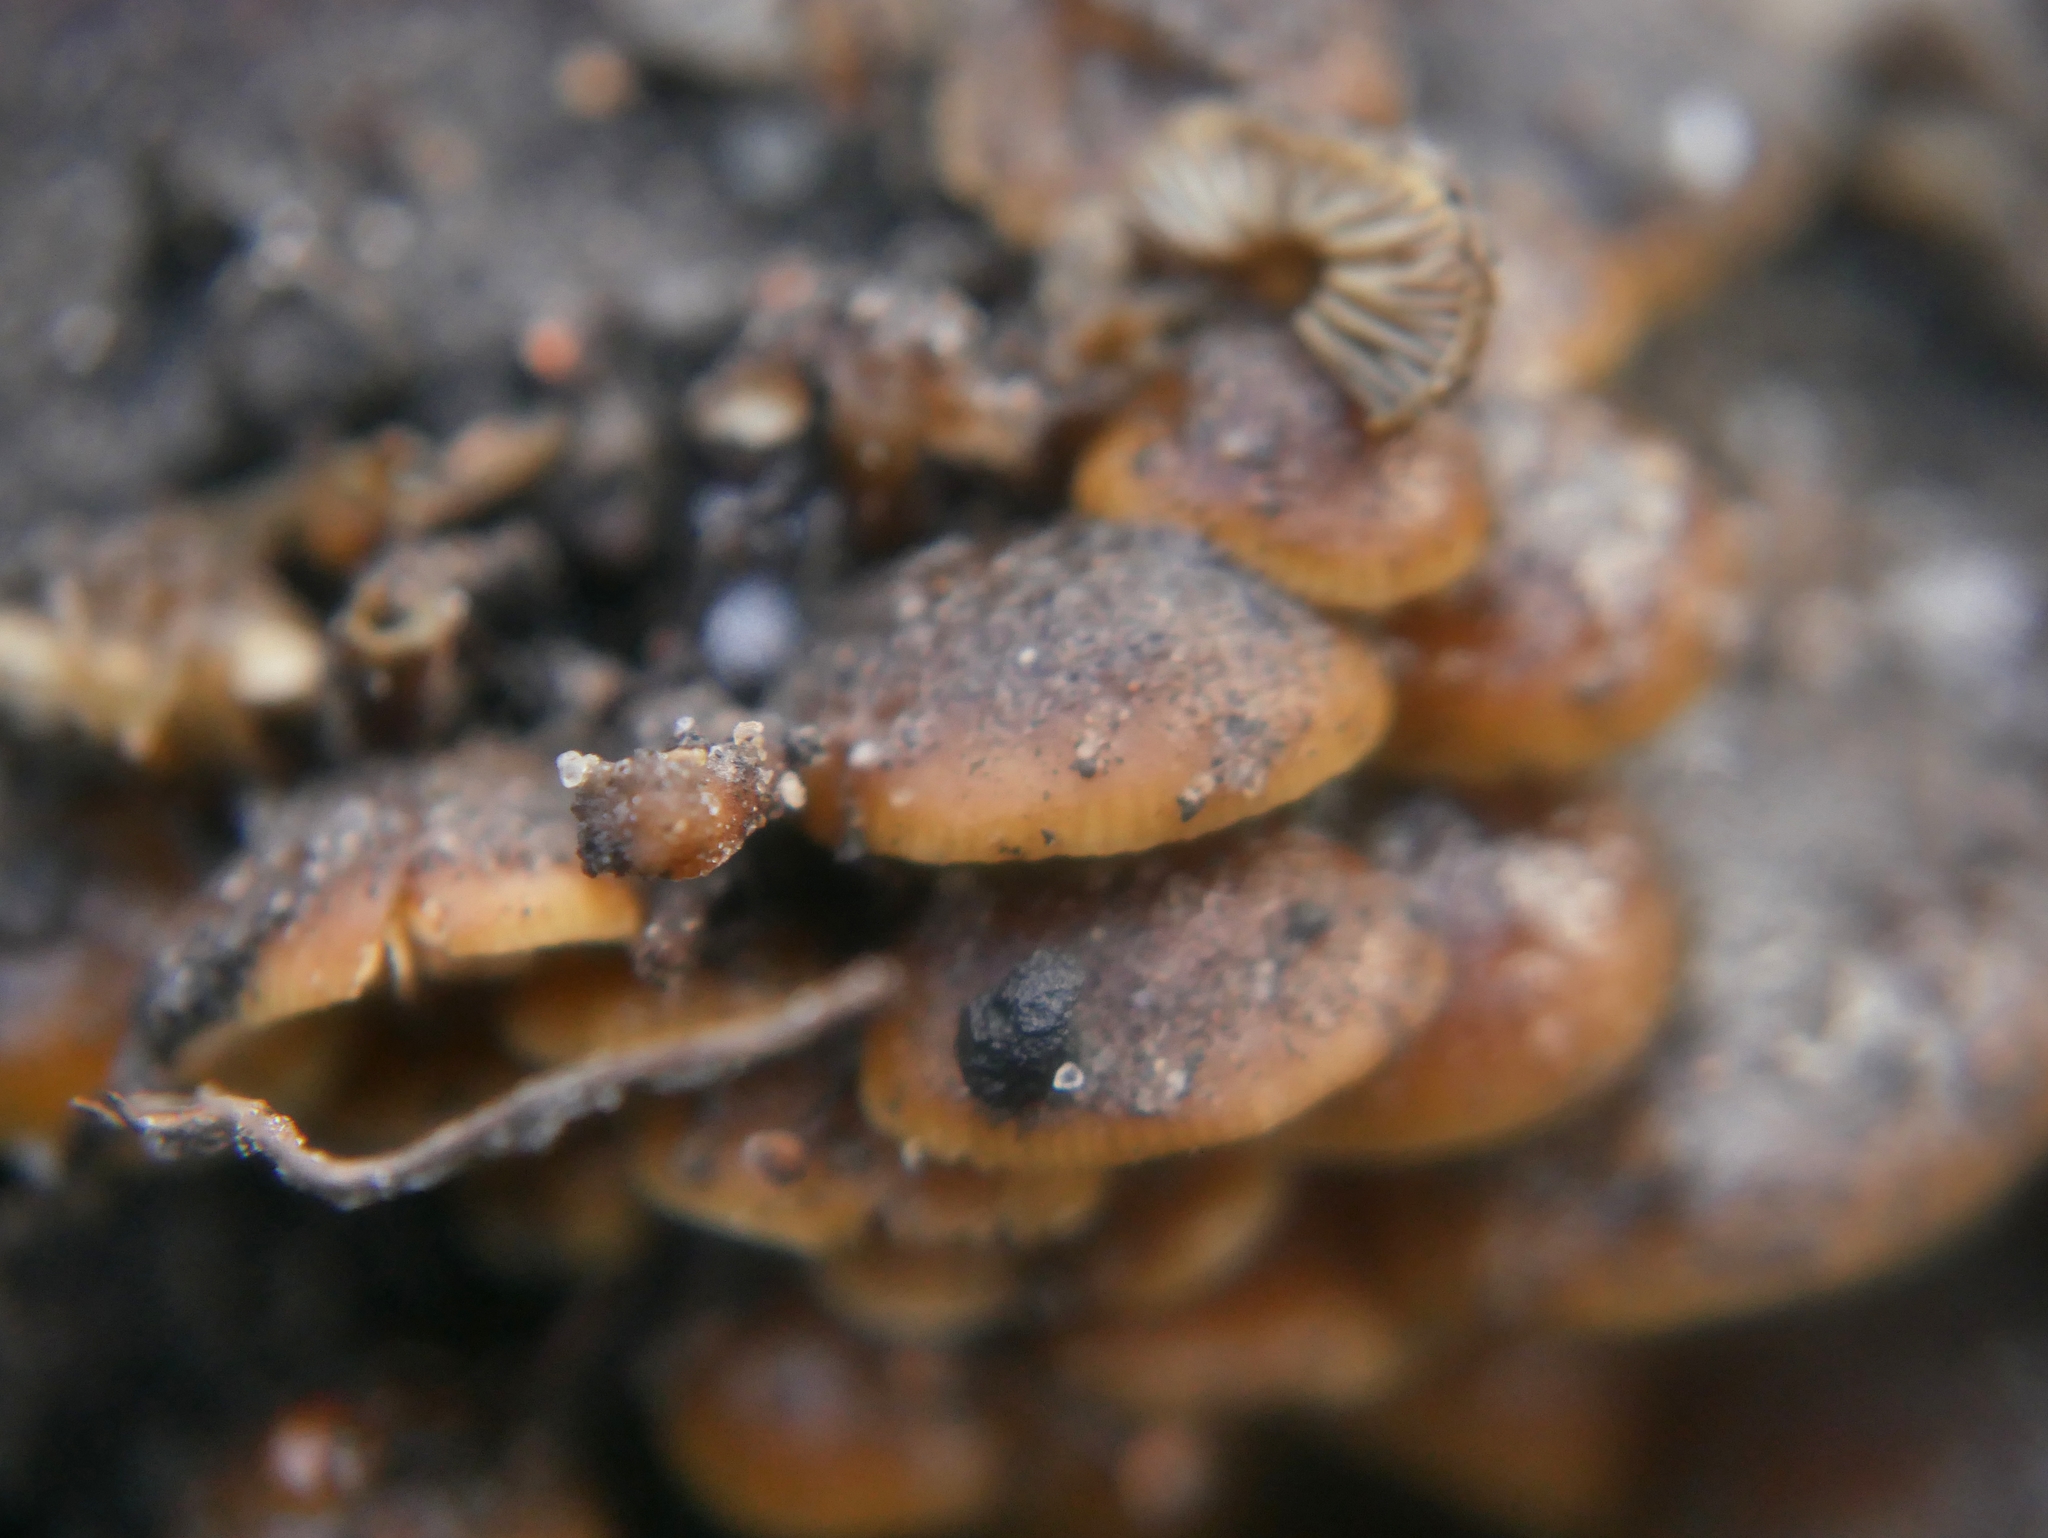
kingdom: Fungi
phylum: Basidiomycota
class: Agaricomycetes
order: Agaricales
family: Physalacriaceae
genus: Flammulina
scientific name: Flammulina
